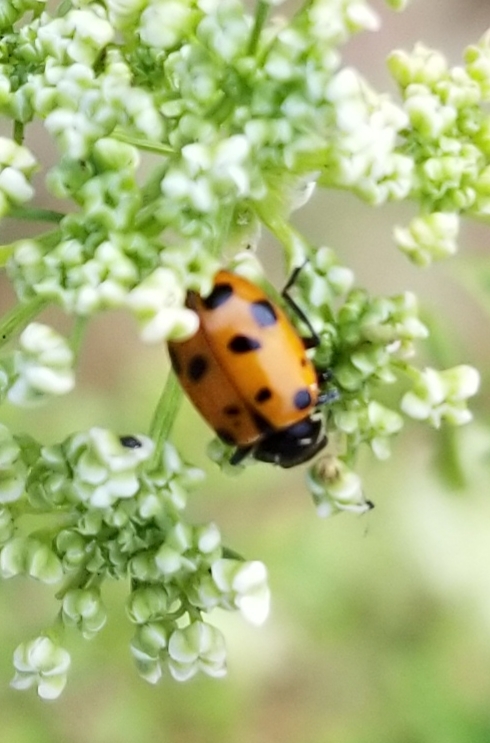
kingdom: Animalia
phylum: Arthropoda
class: Insecta
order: Coleoptera
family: Coccinellidae
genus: Hippodamia
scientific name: Hippodamia convergens
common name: Convergent lady beetle
